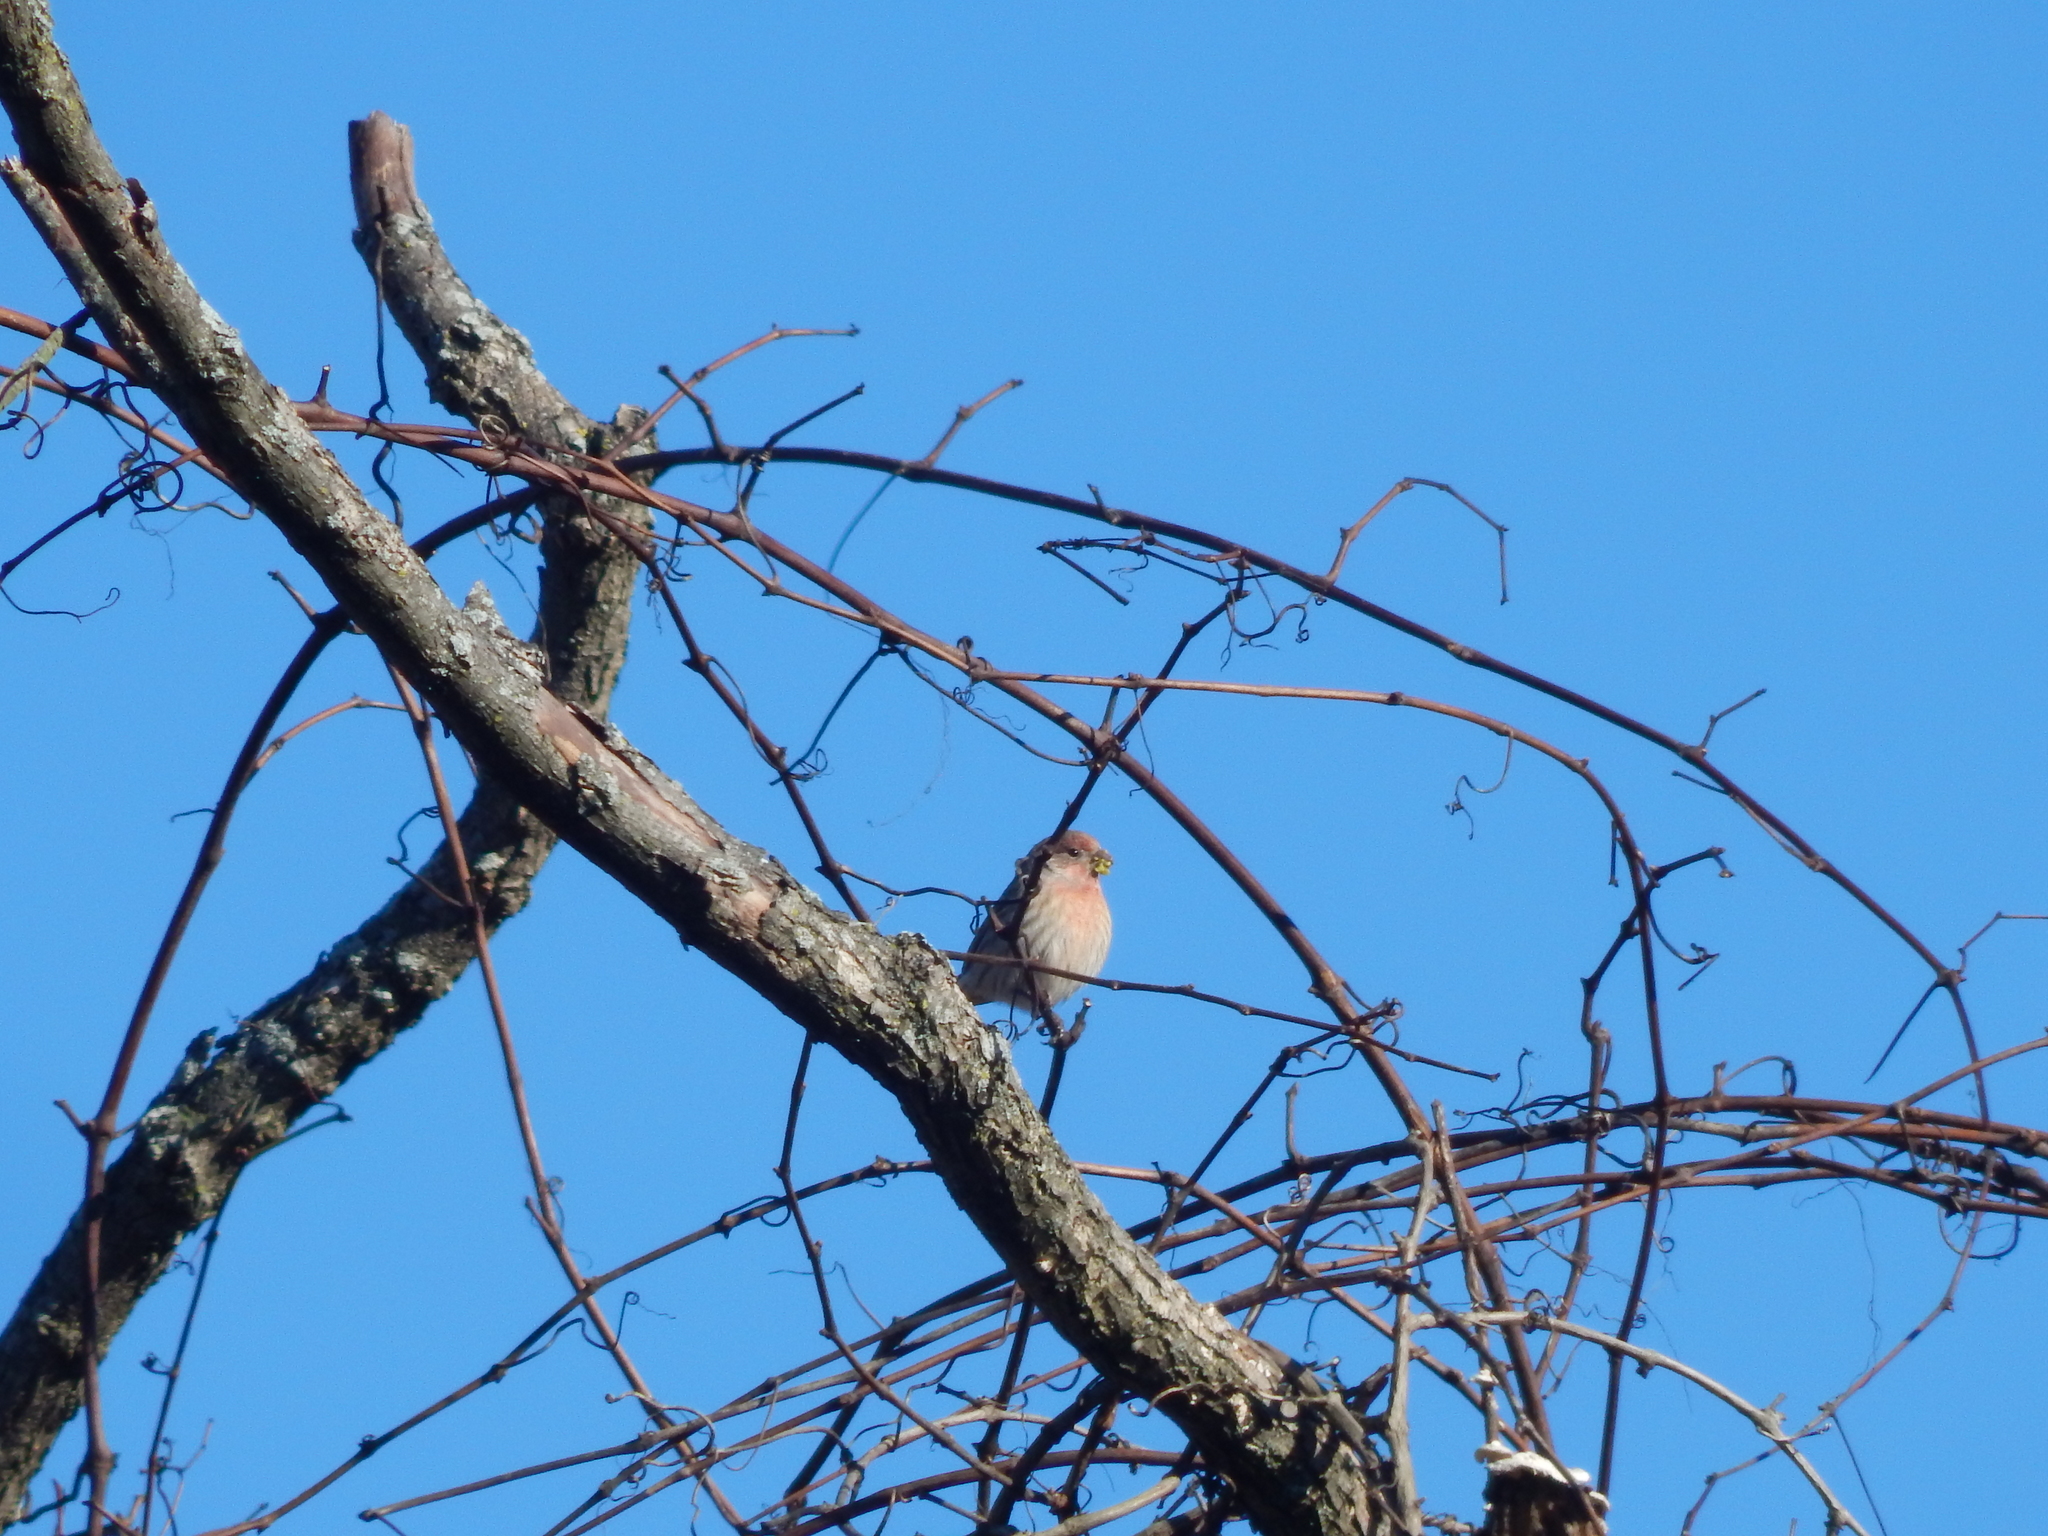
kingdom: Animalia
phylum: Chordata
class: Aves
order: Passeriformes
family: Fringillidae
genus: Haemorhous
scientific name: Haemorhous mexicanus
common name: House finch
